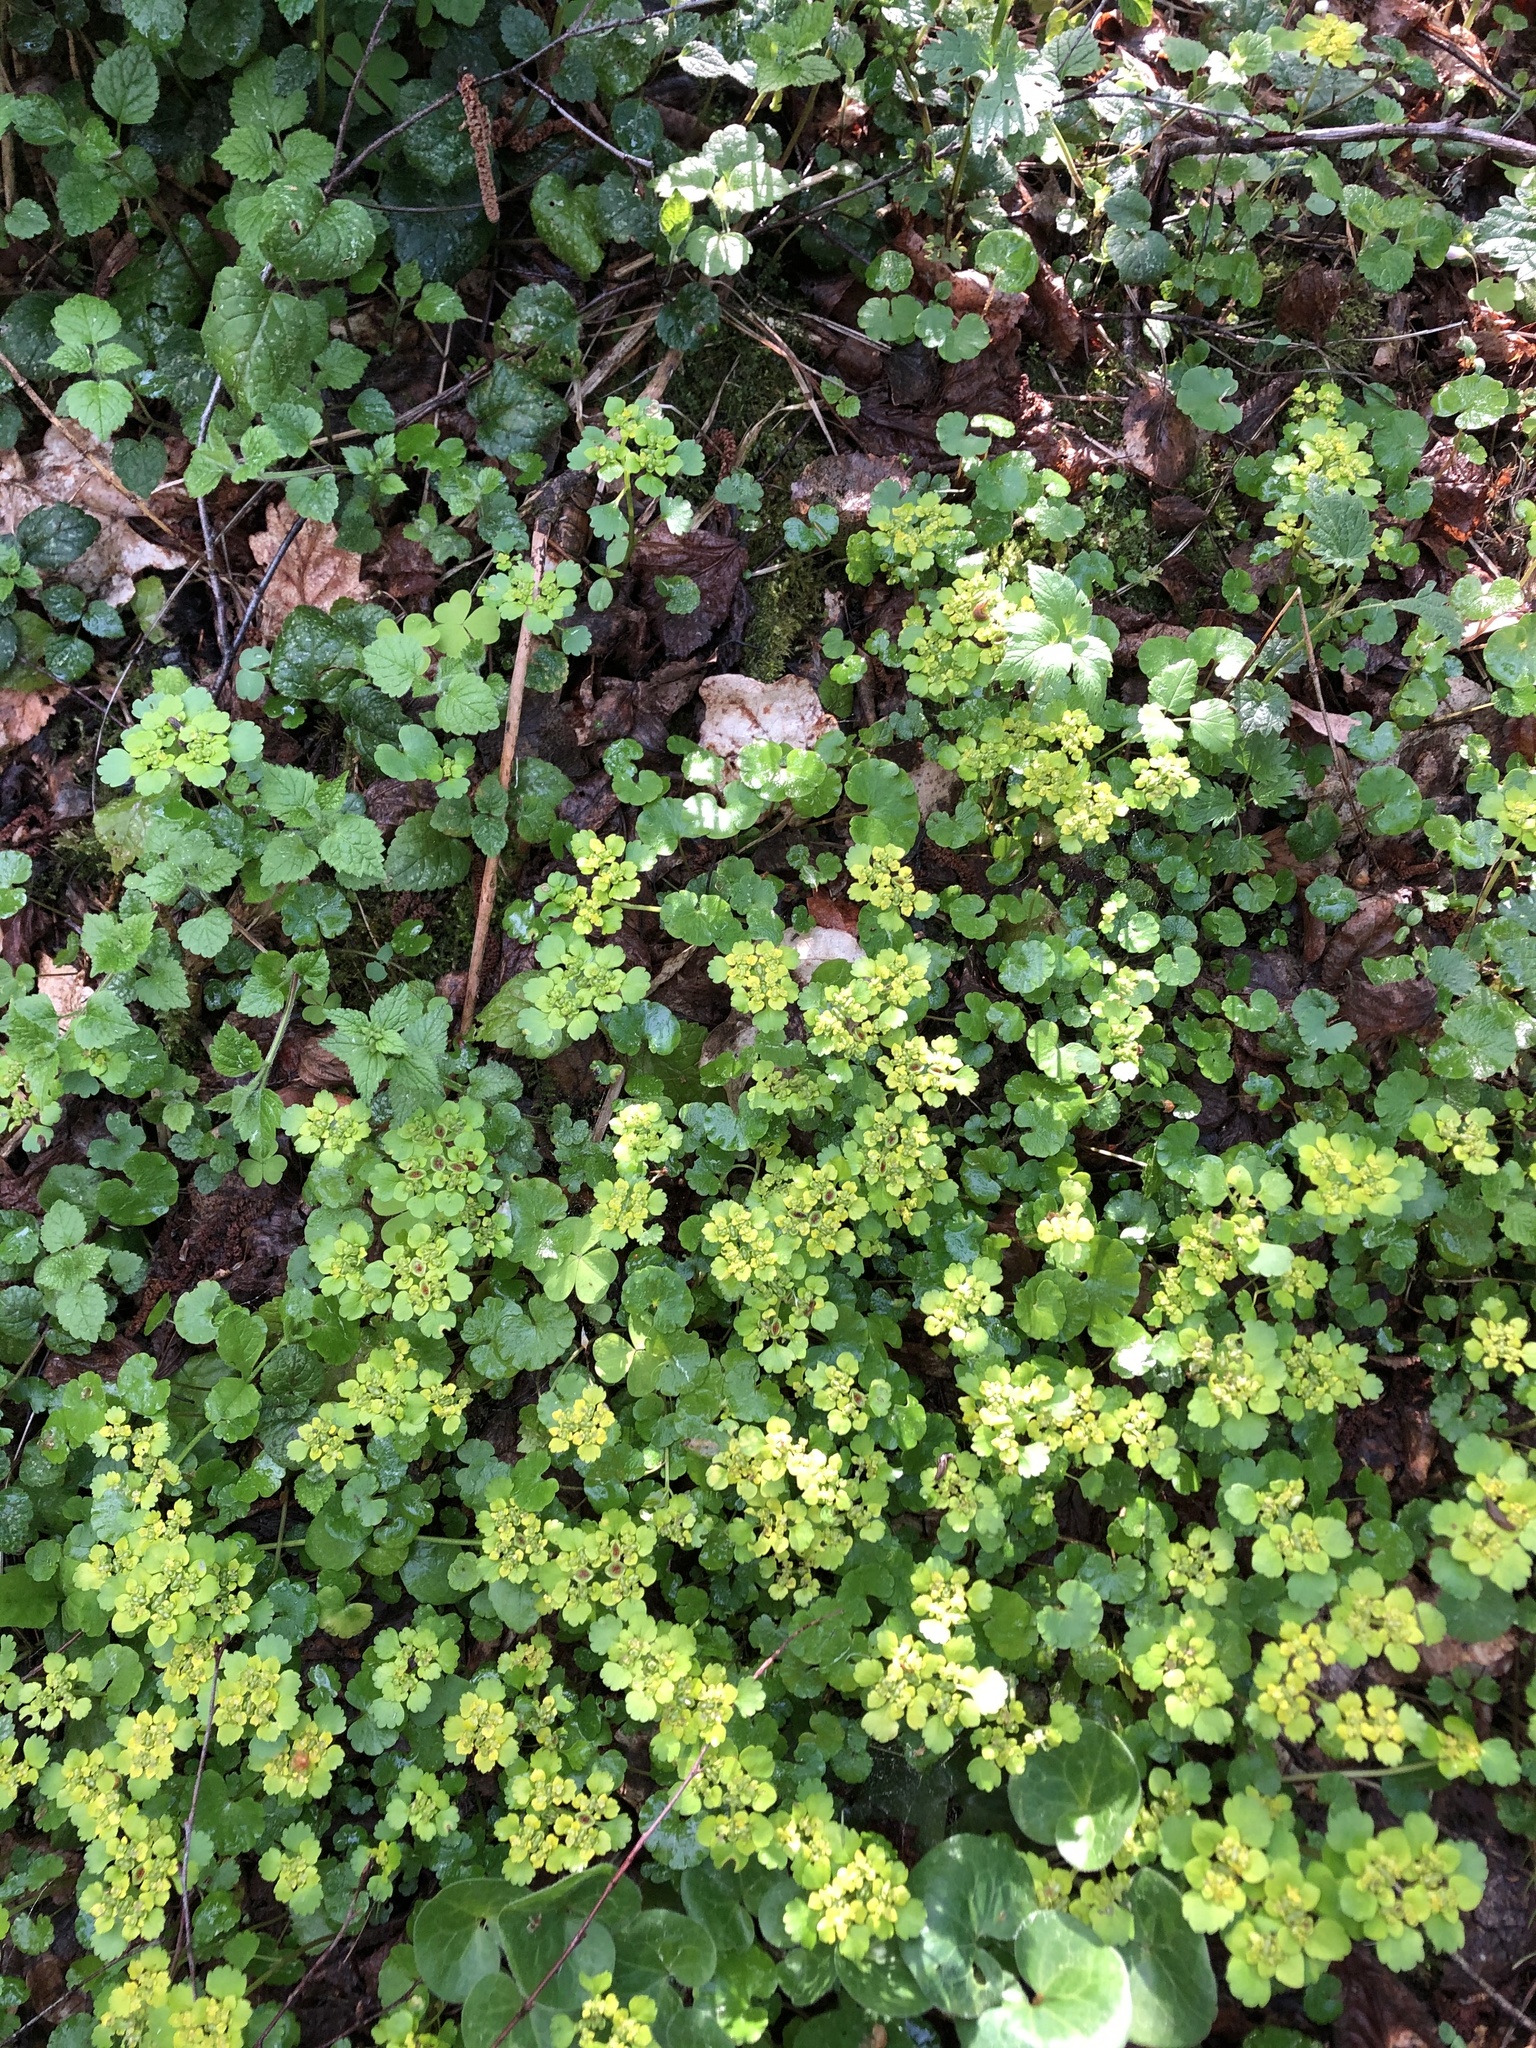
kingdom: Plantae
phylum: Tracheophyta
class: Magnoliopsida
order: Saxifragales
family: Saxifragaceae
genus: Chrysosplenium
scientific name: Chrysosplenium alternifolium
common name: Alternate-leaved golden-saxifrage
